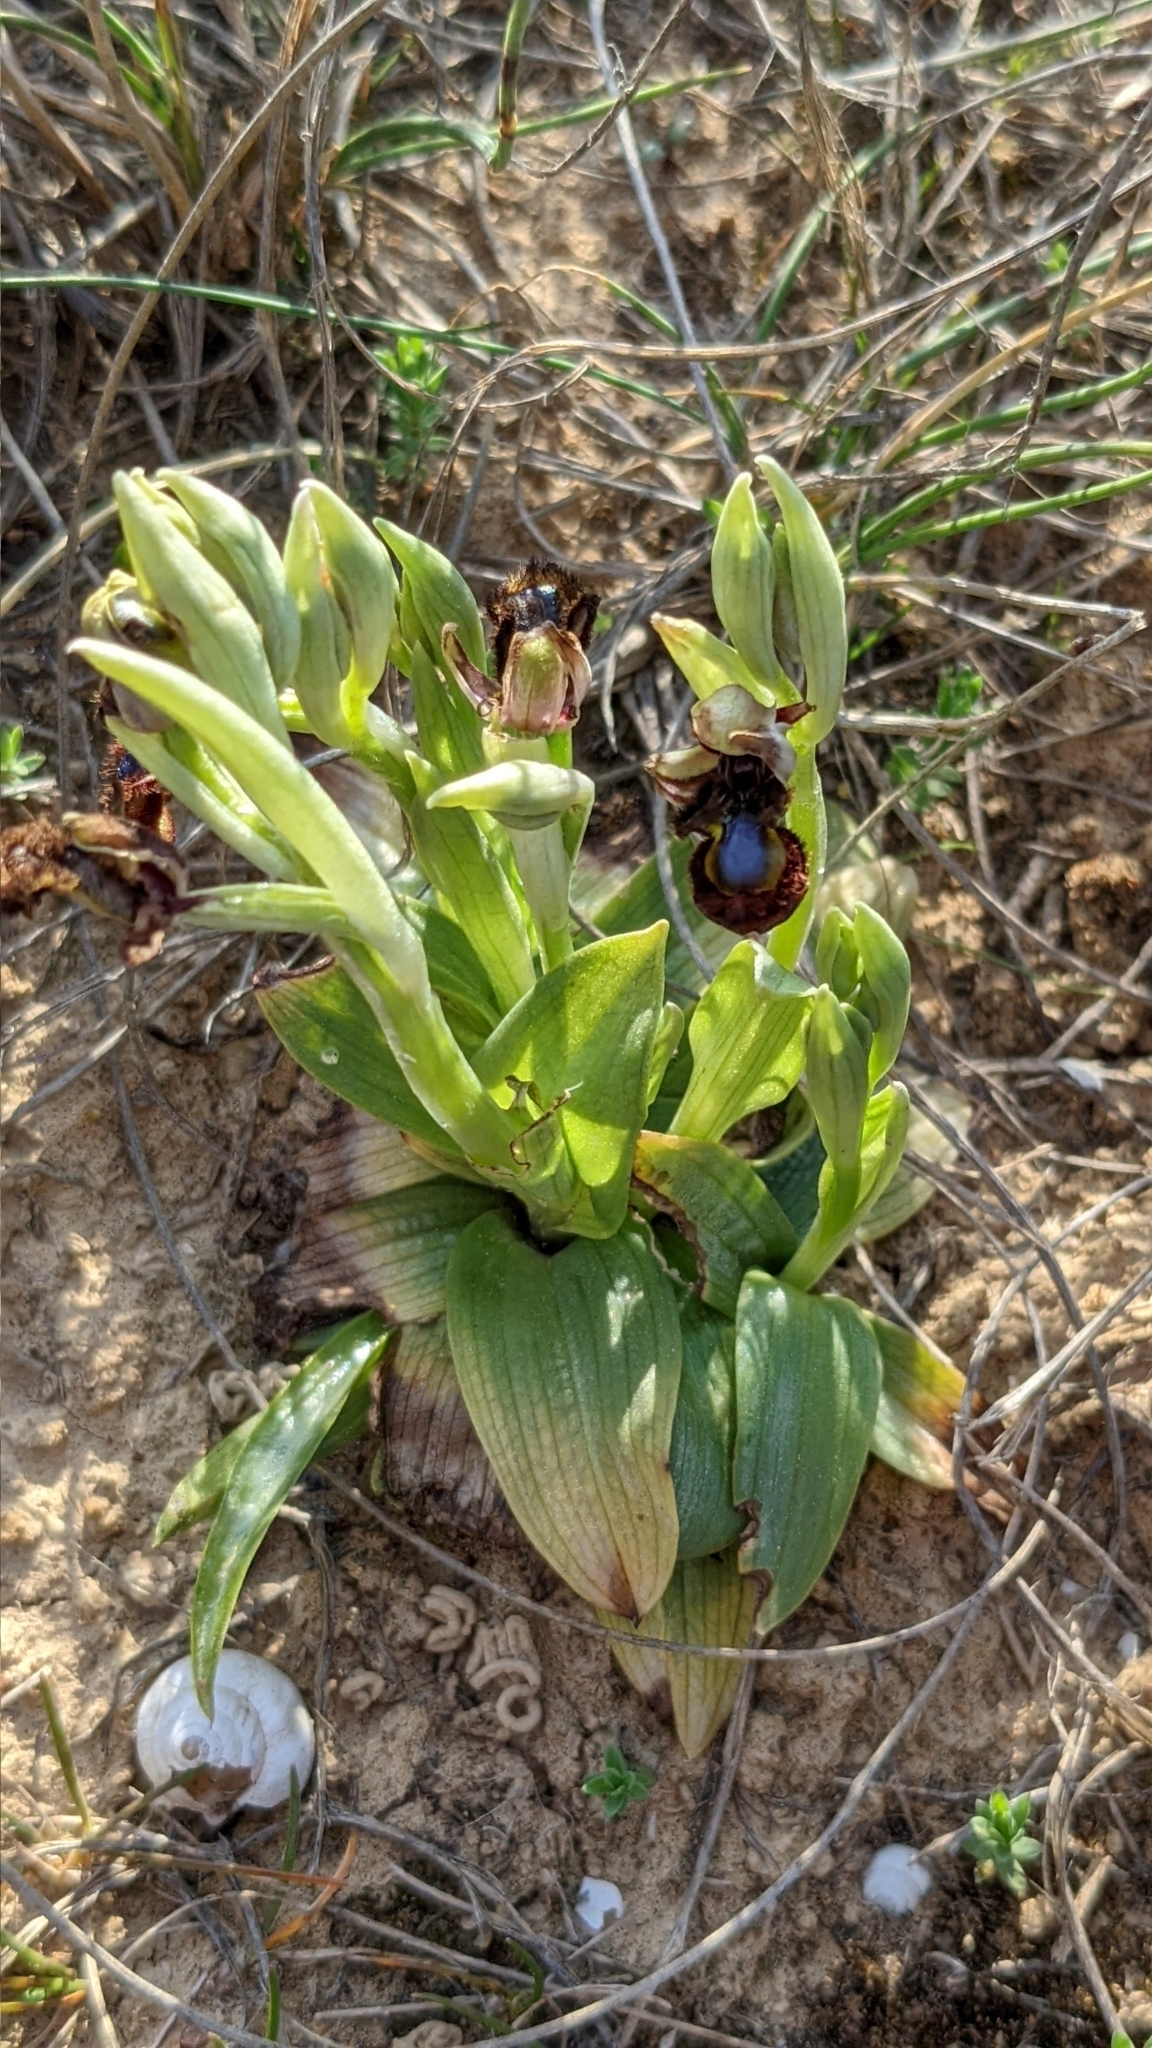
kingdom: Plantae
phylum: Tracheophyta
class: Liliopsida
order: Asparagales
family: Orchidaceae
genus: Ophrys
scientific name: Ophrys speculum
